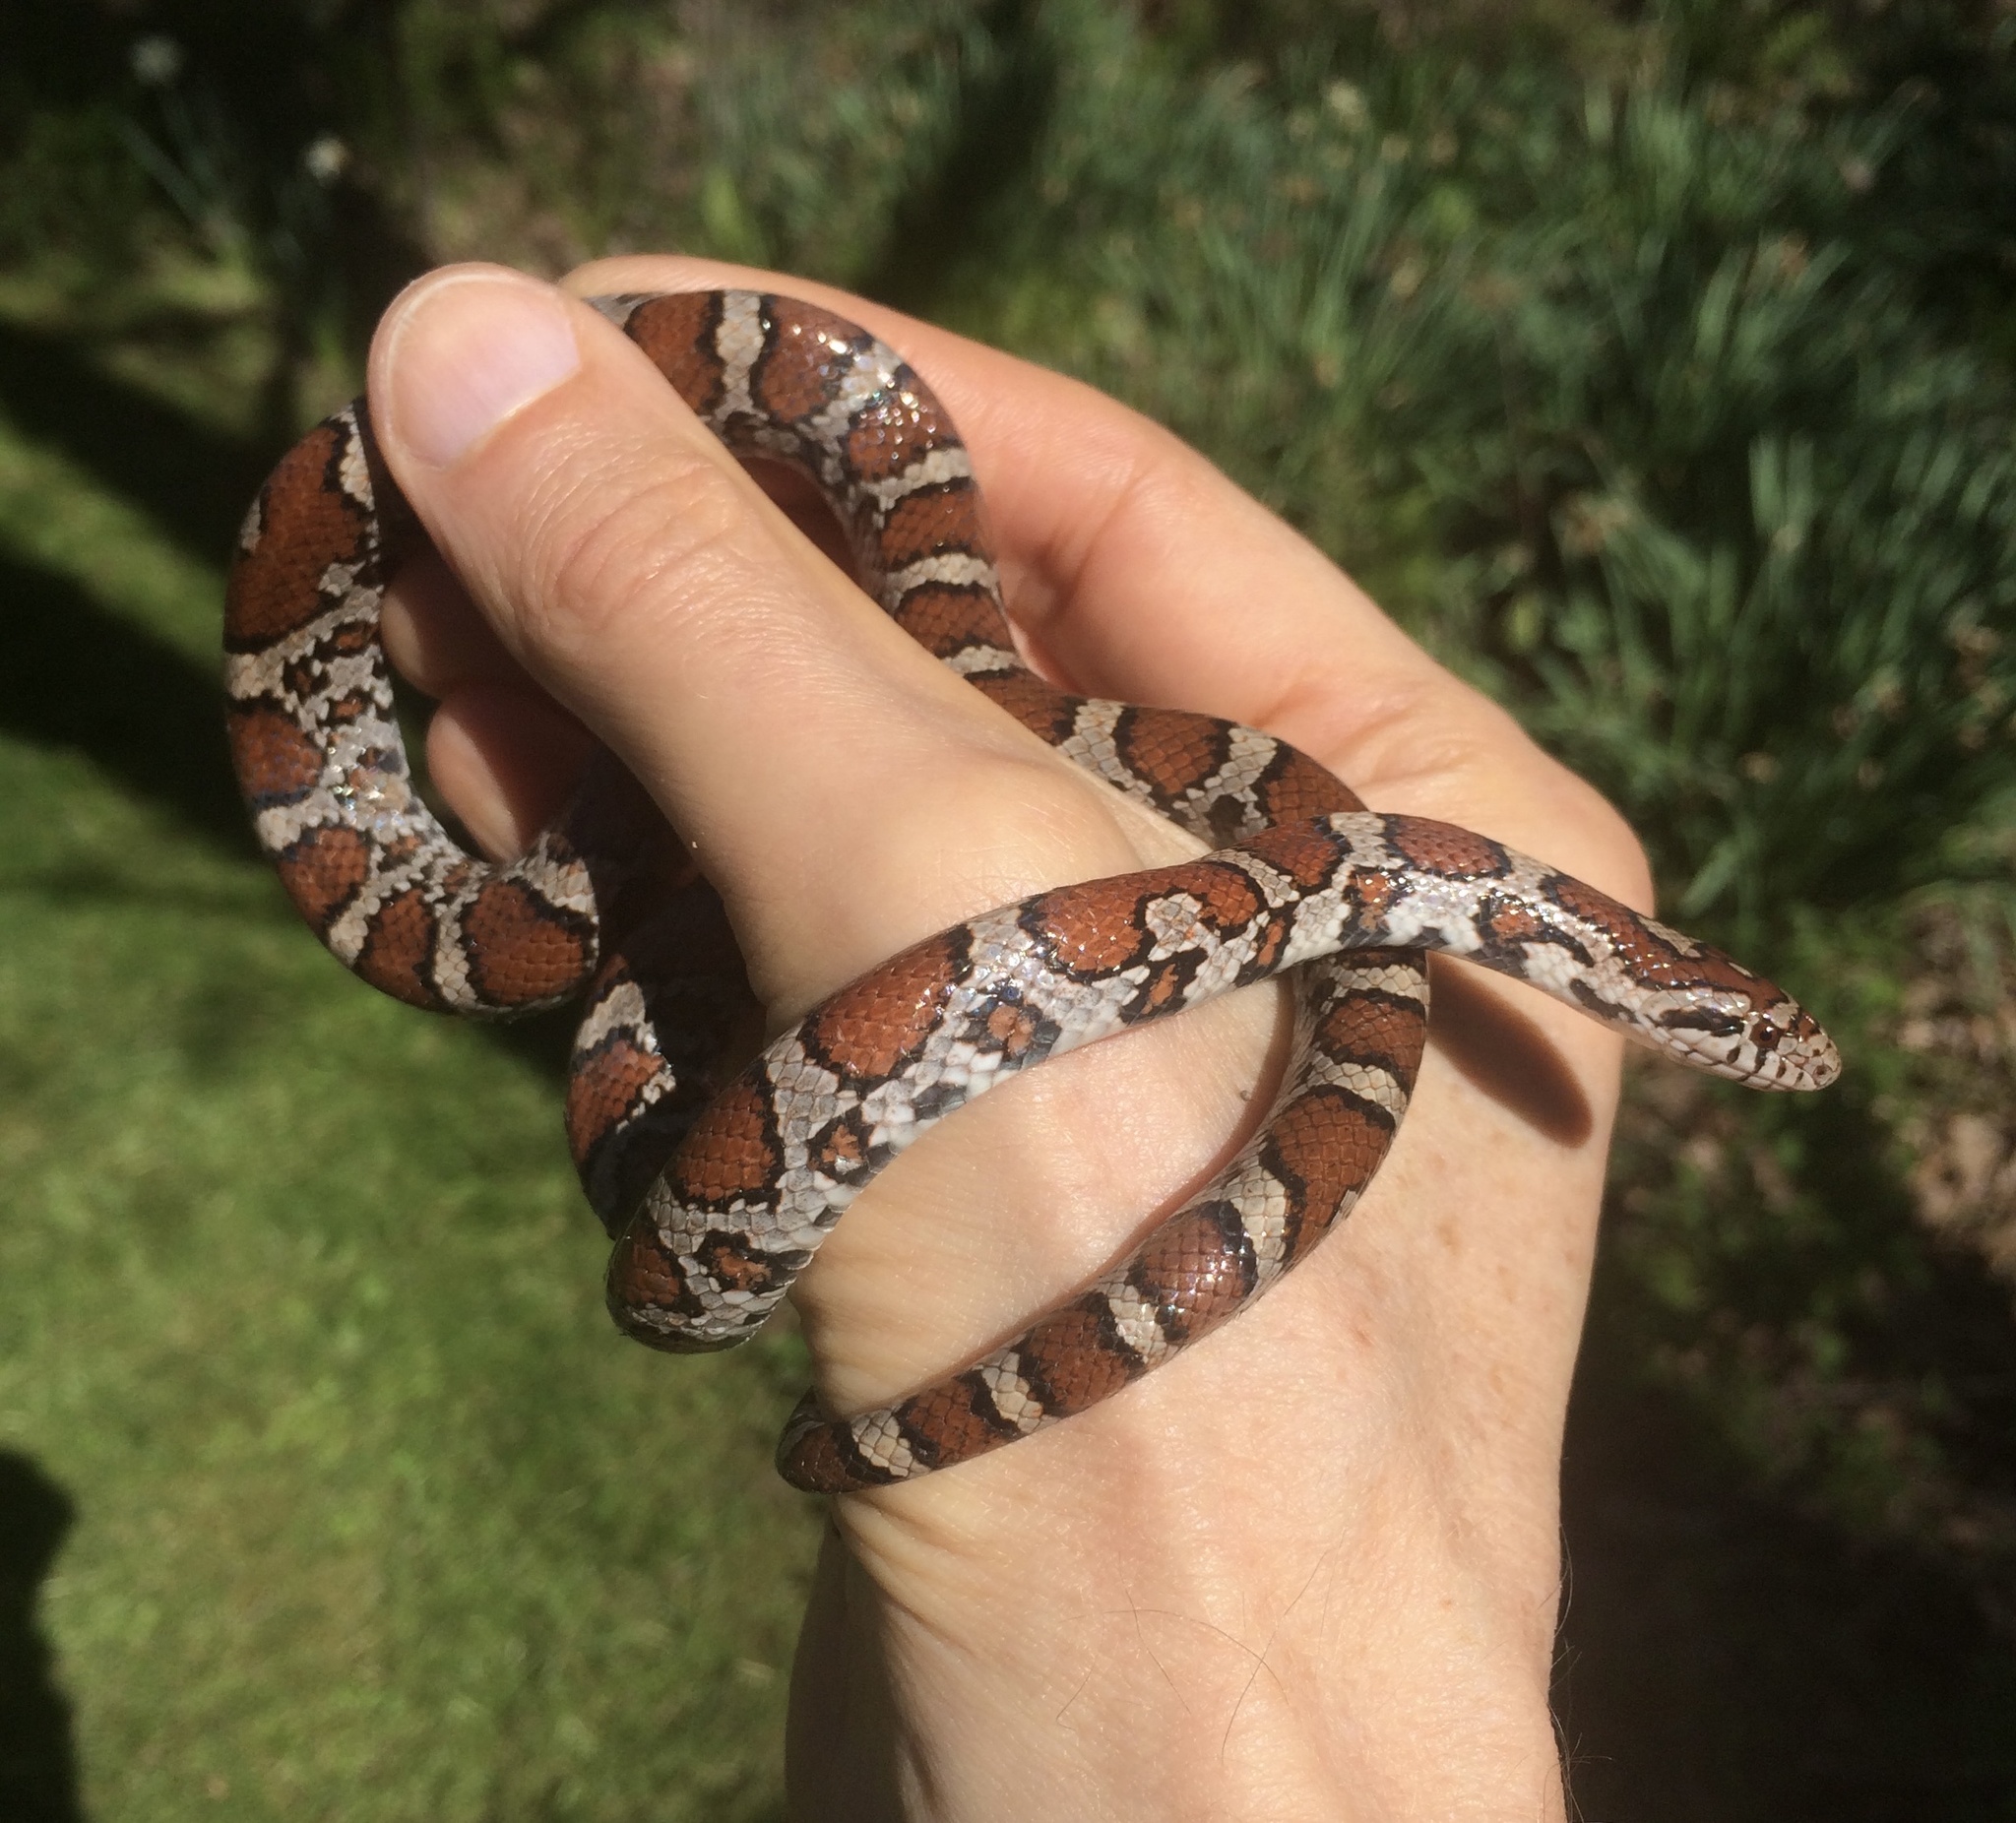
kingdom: Animalia
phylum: Chordata
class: Squamata
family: Colubridae
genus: Lampropeltis
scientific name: Lampropeltis triangulum
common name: Eastern milksnake
